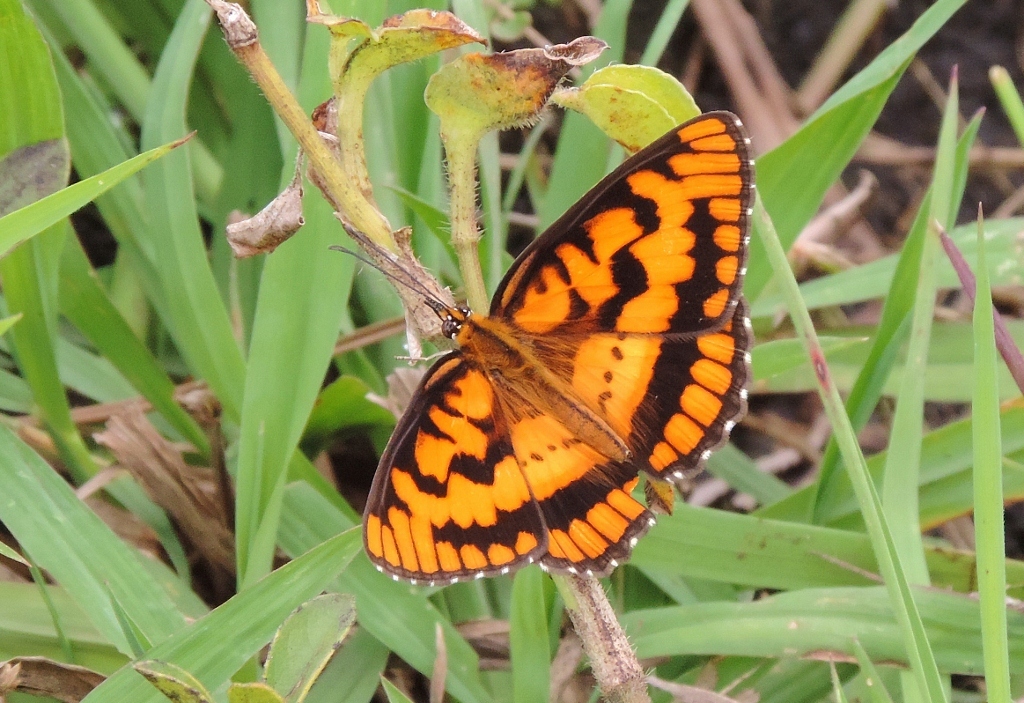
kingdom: Animalia
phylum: Arthropoda
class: Insecta
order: Lepidoptera
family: Nymphalidae
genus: Byblia
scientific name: Byblia ilithyia
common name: Spotted joker
